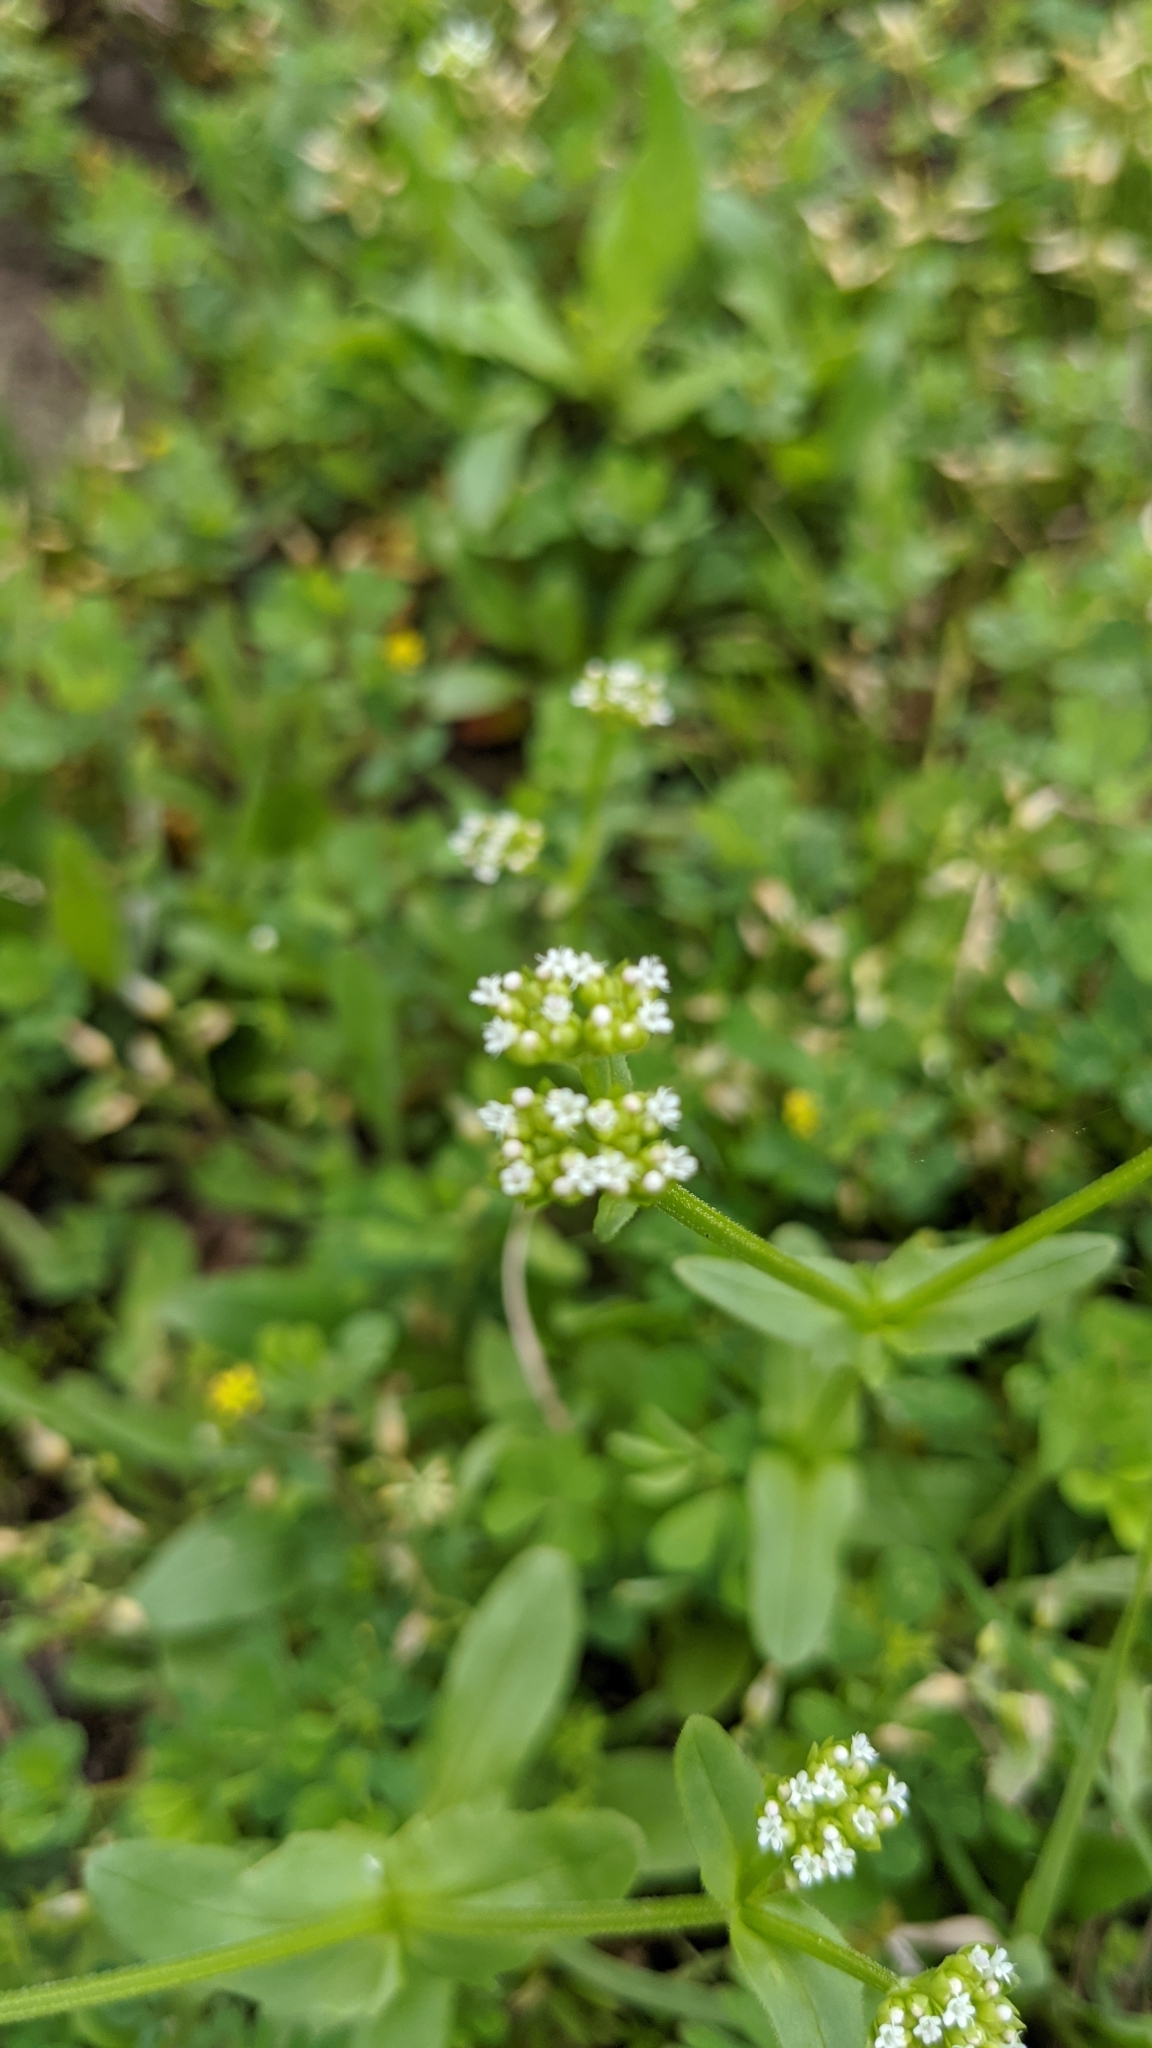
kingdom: Plantae
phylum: Tracheophyta
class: Magnoliopsida
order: Dipsacales
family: Caprifoliaceae
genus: Valerianella
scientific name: Valerianella radiata
